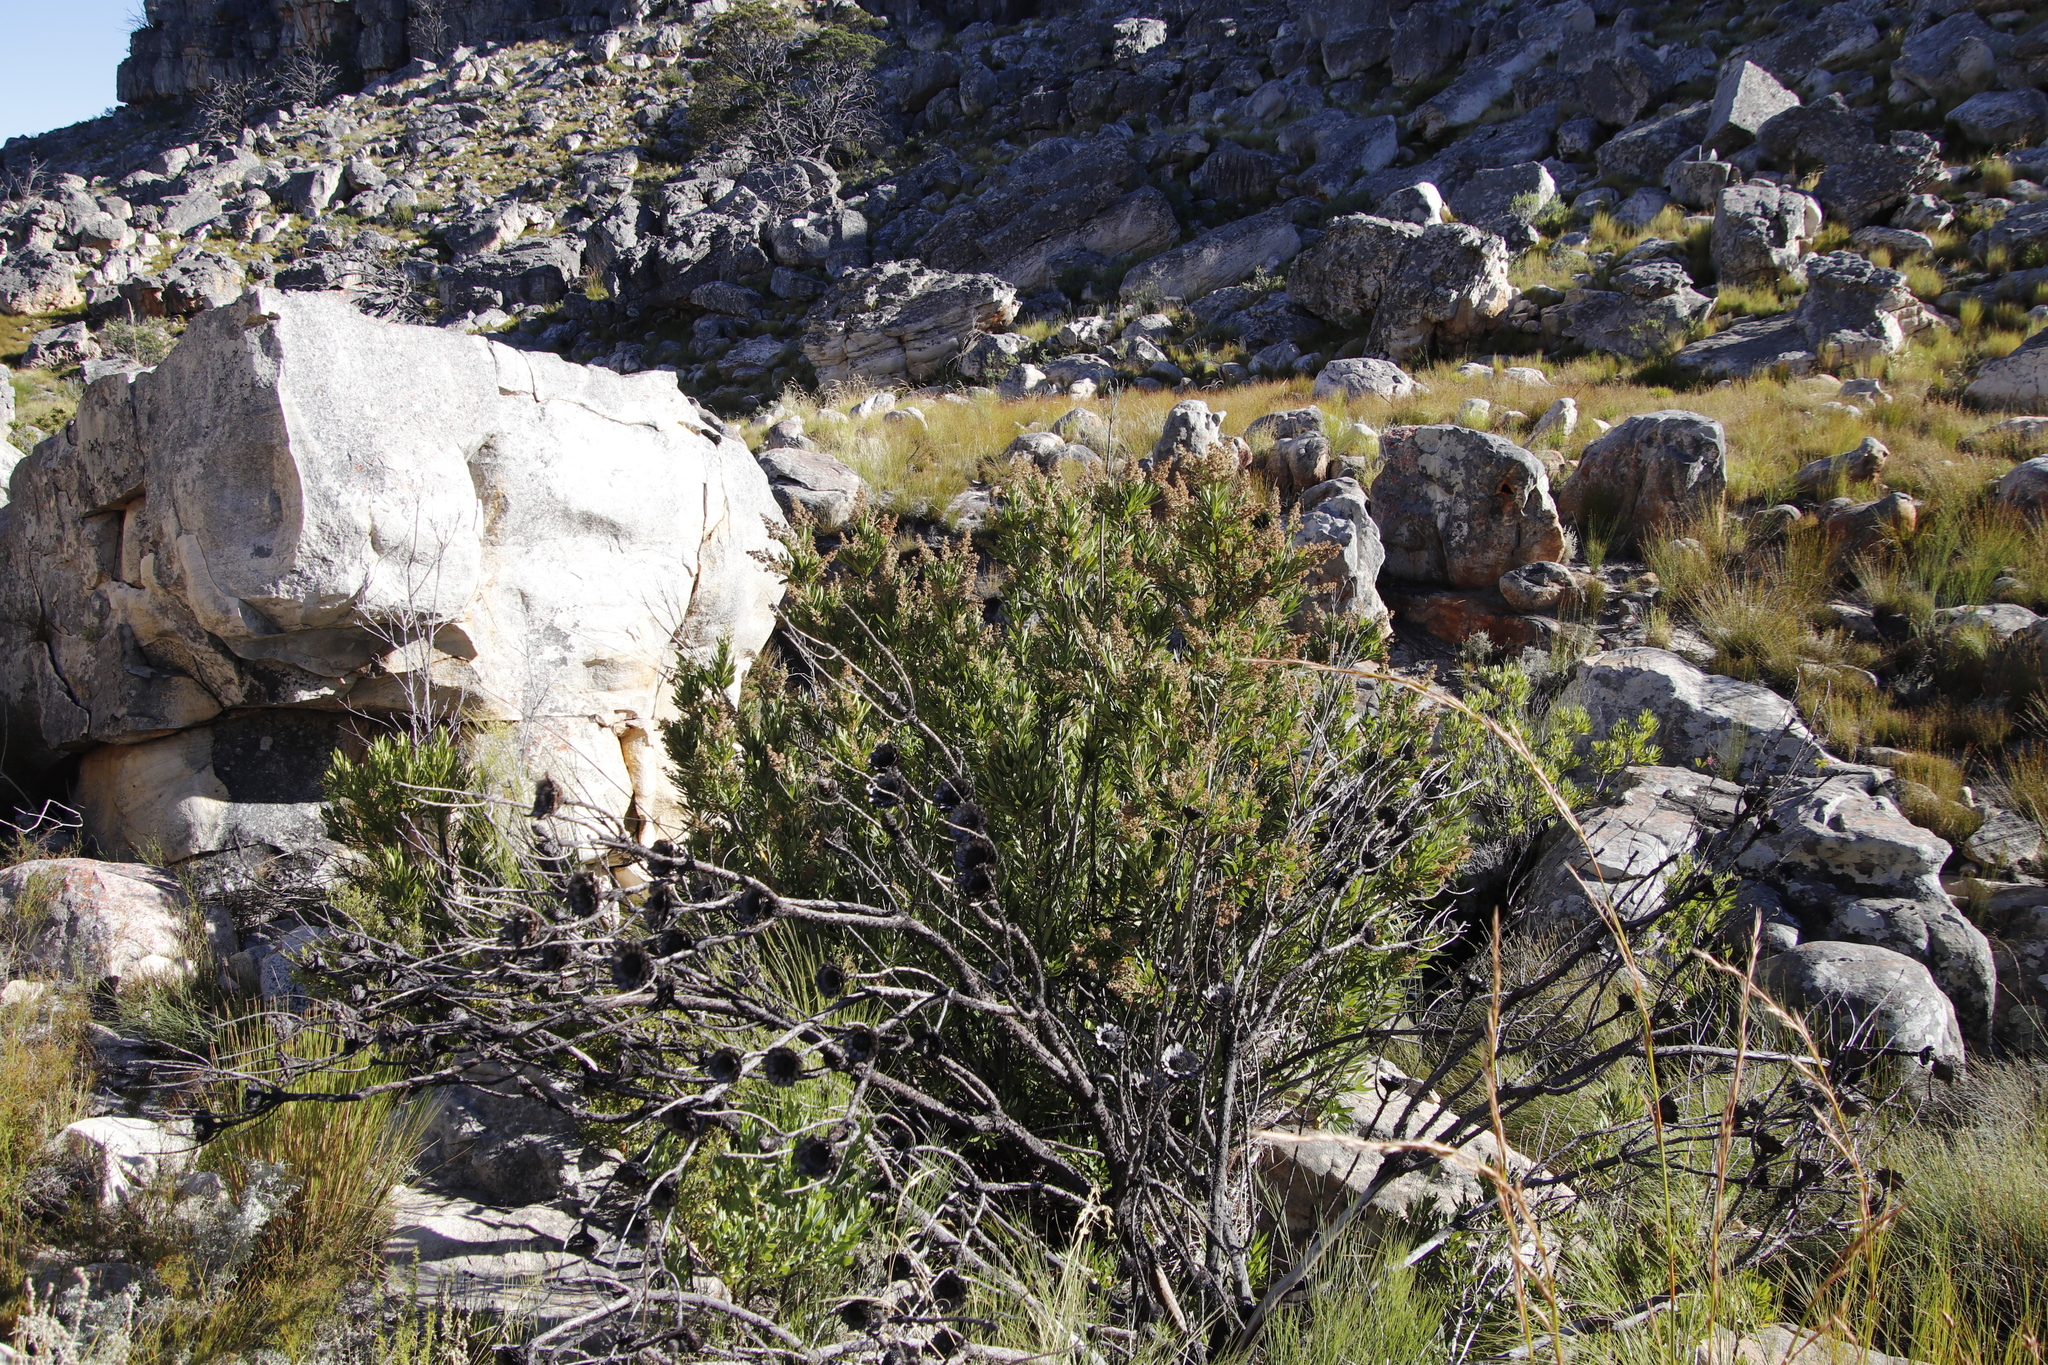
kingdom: Plantae
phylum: Tracheophyta
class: Magnoliopsida
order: Asterales
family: Asteraceae
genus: Brachylaena
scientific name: Brachylaena neriifolia
